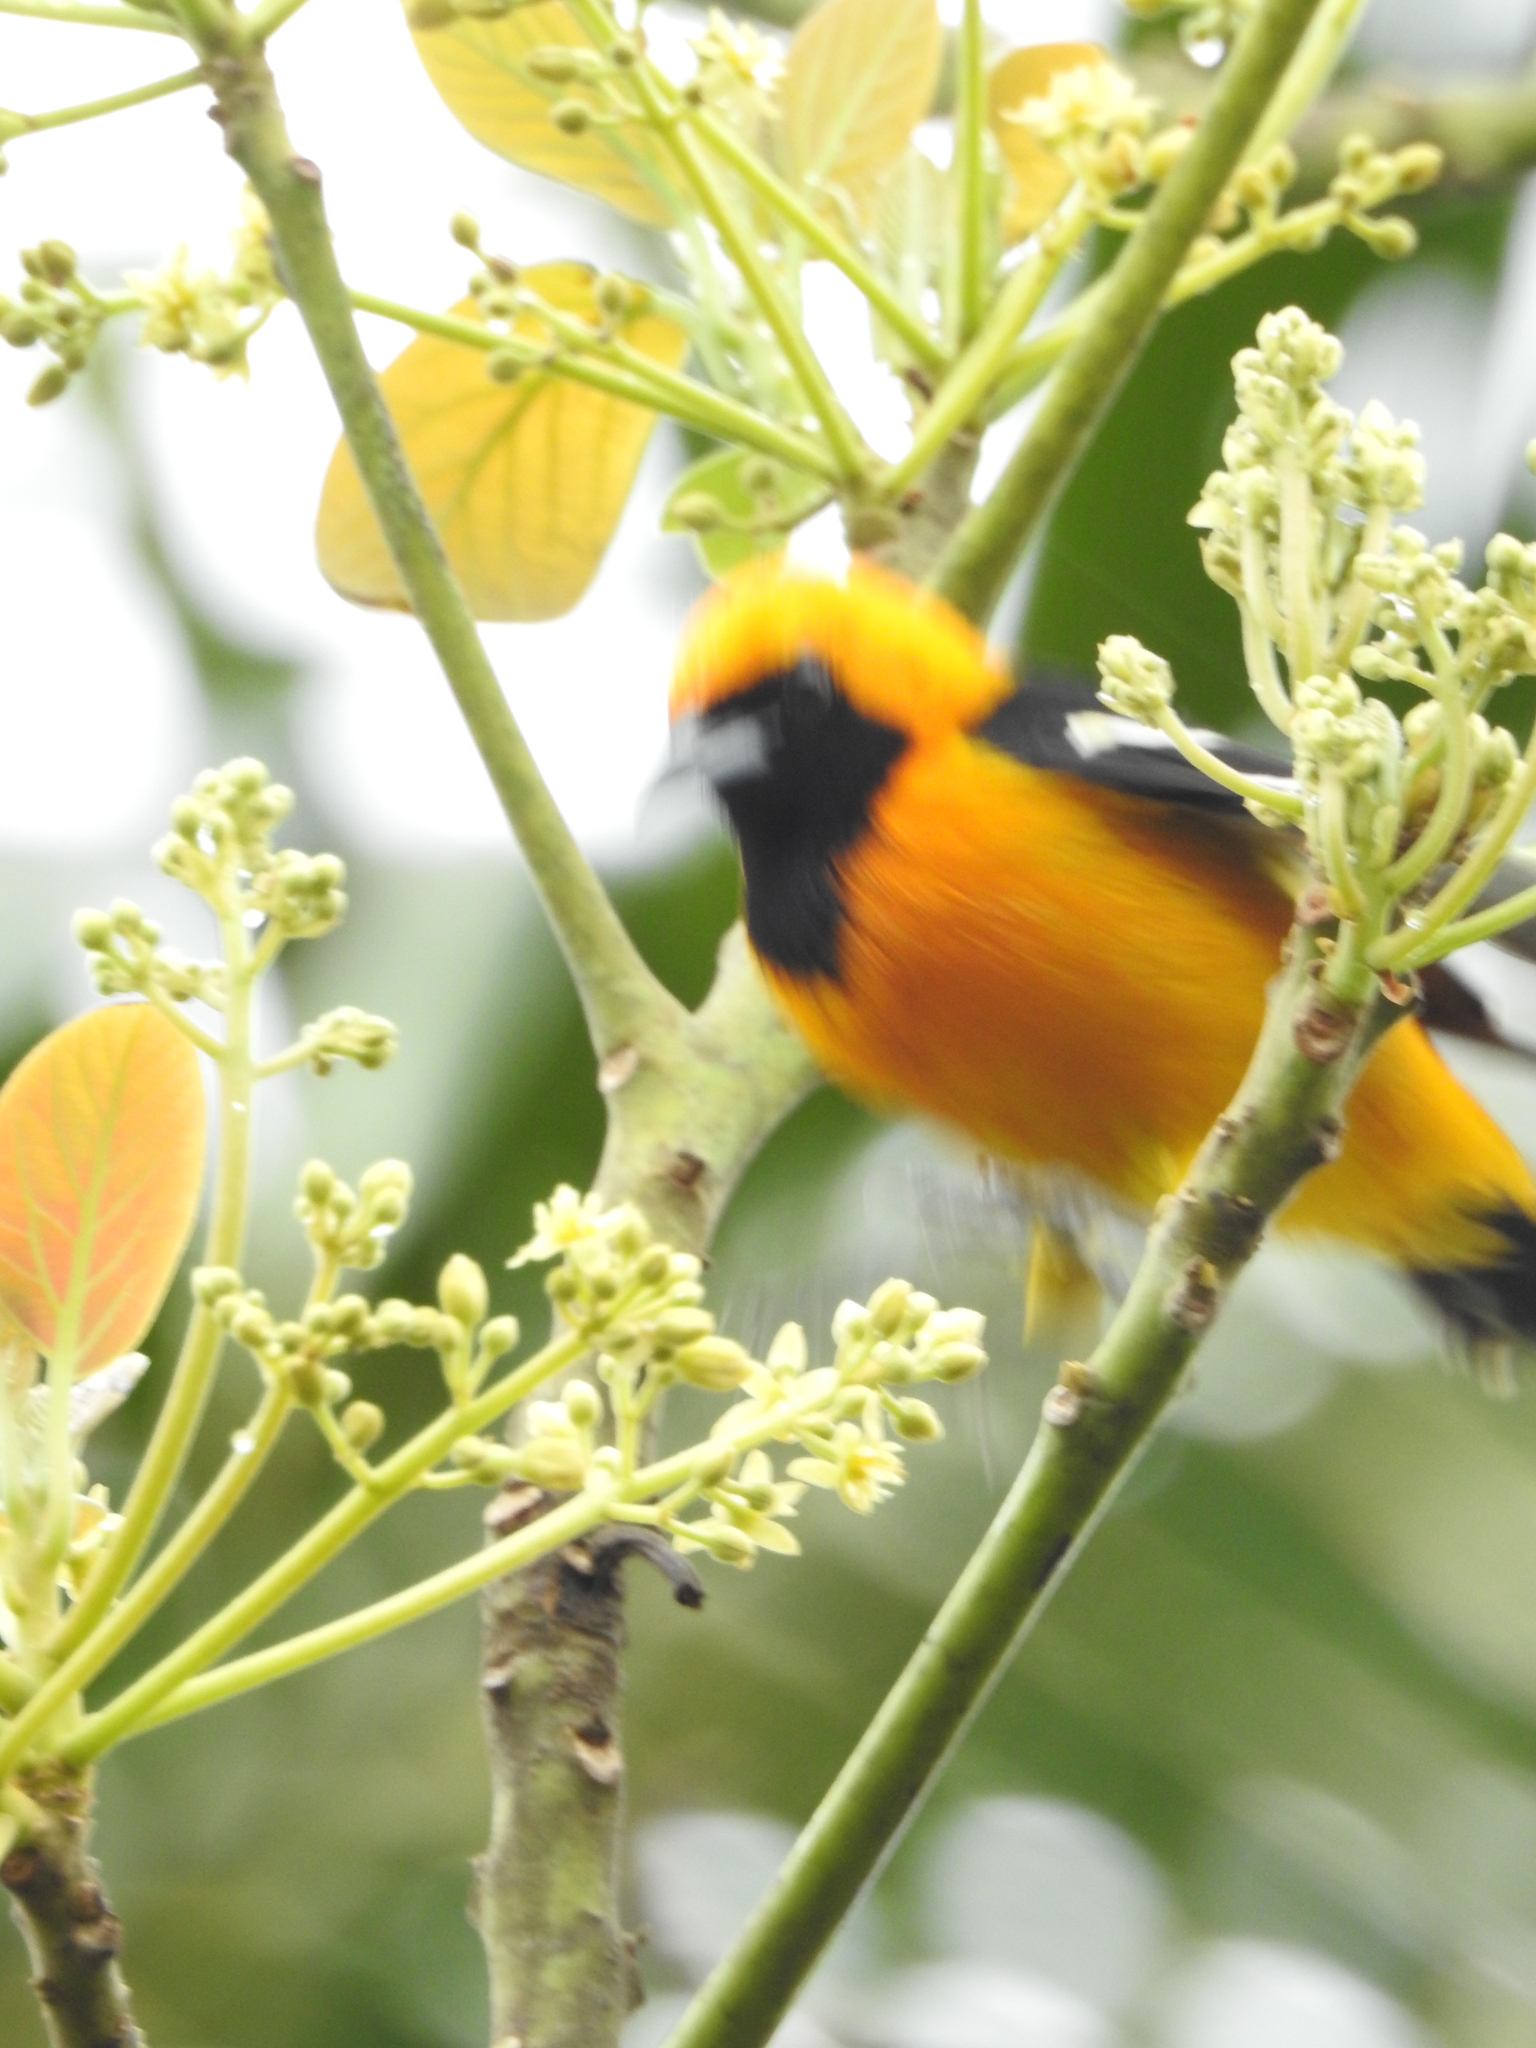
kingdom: Animalia
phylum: Chordata
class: Aves
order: Passeriformes
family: Icteridae
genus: Icterus
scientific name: Icterus cucullatus
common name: Hooded oriole
